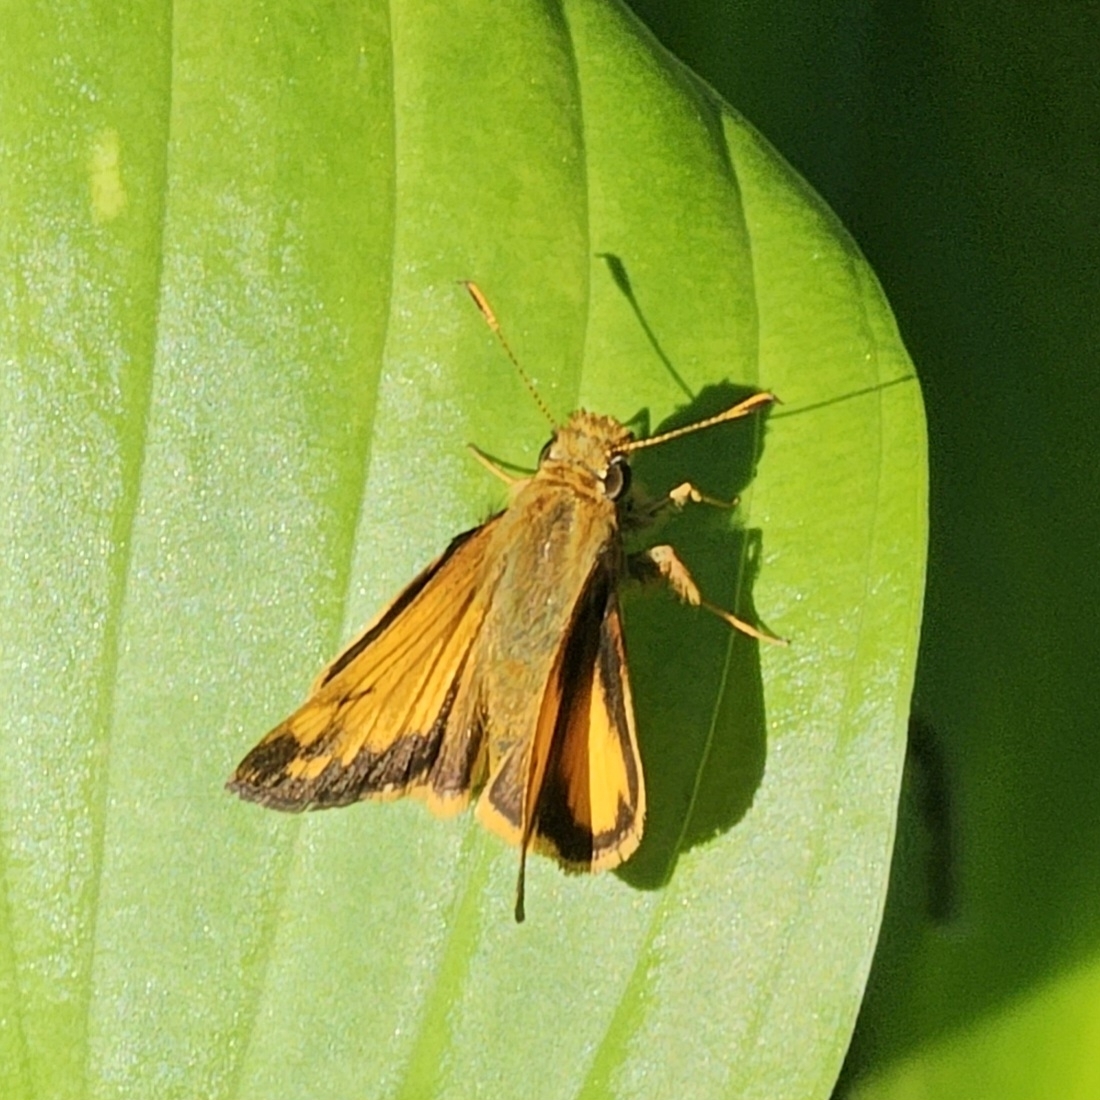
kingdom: Animalia
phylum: Arthropoda
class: Insecta
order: Lepidoptera
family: Hesperiidae
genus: Lon
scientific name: Lon zabulon
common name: Zabulon skipper
